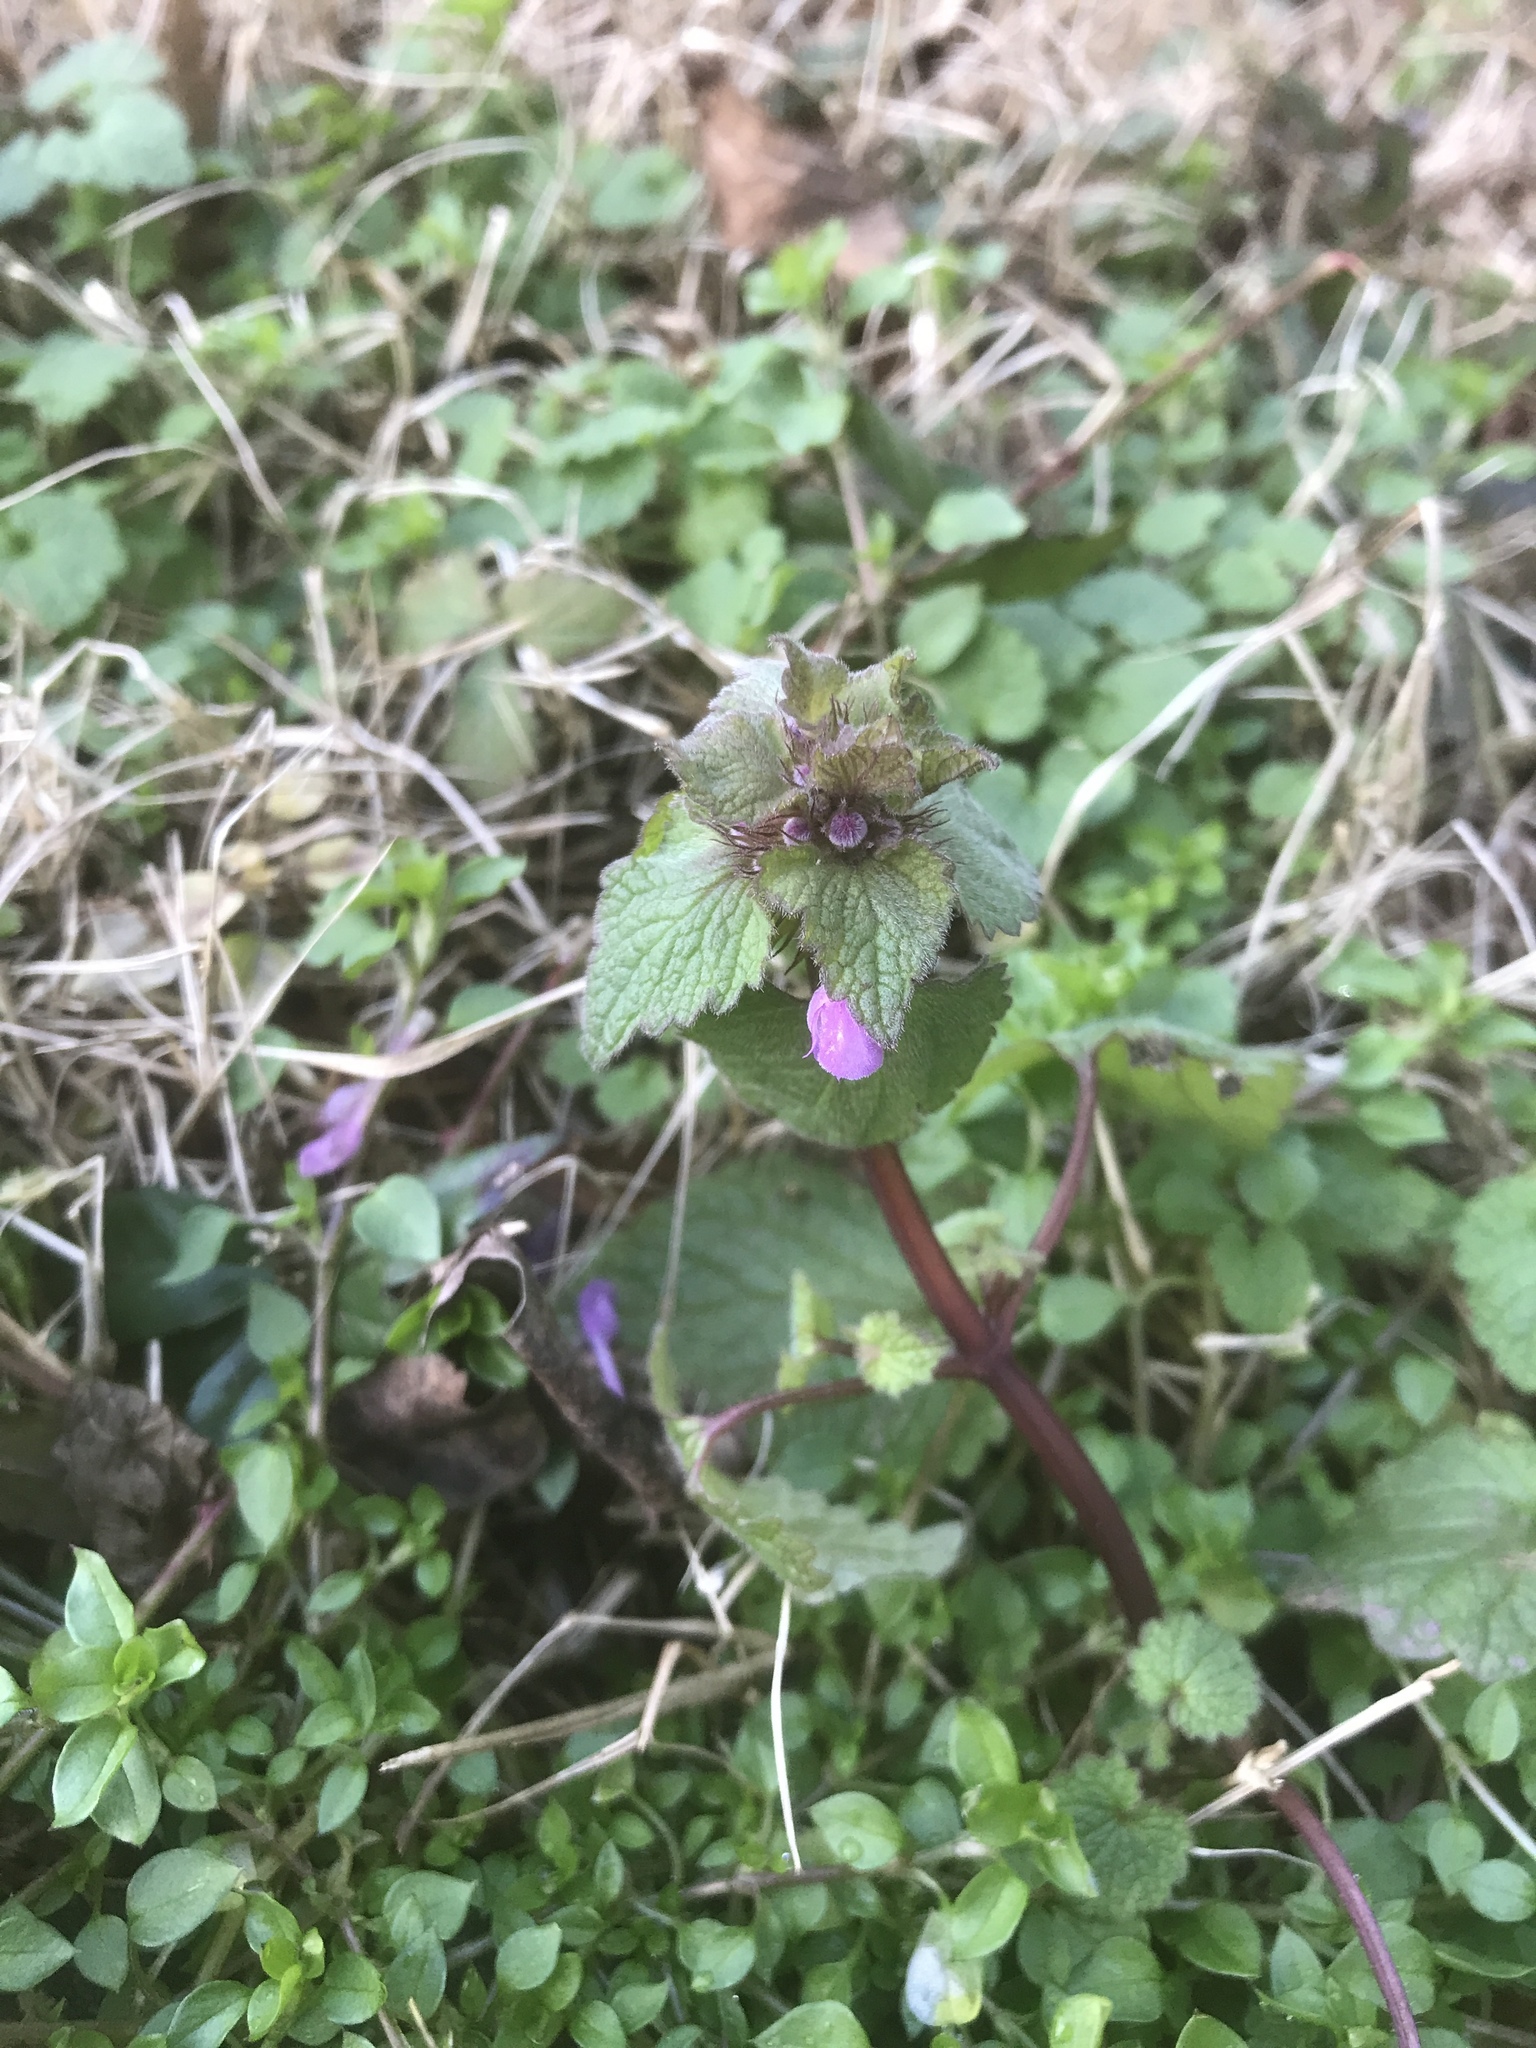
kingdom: Plantae
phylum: Tracheophyta
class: Magnoliopsida
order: Lamiales
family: Lamiaceae
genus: Lamium
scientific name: Lamium purpureum
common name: Red dead-nettle
